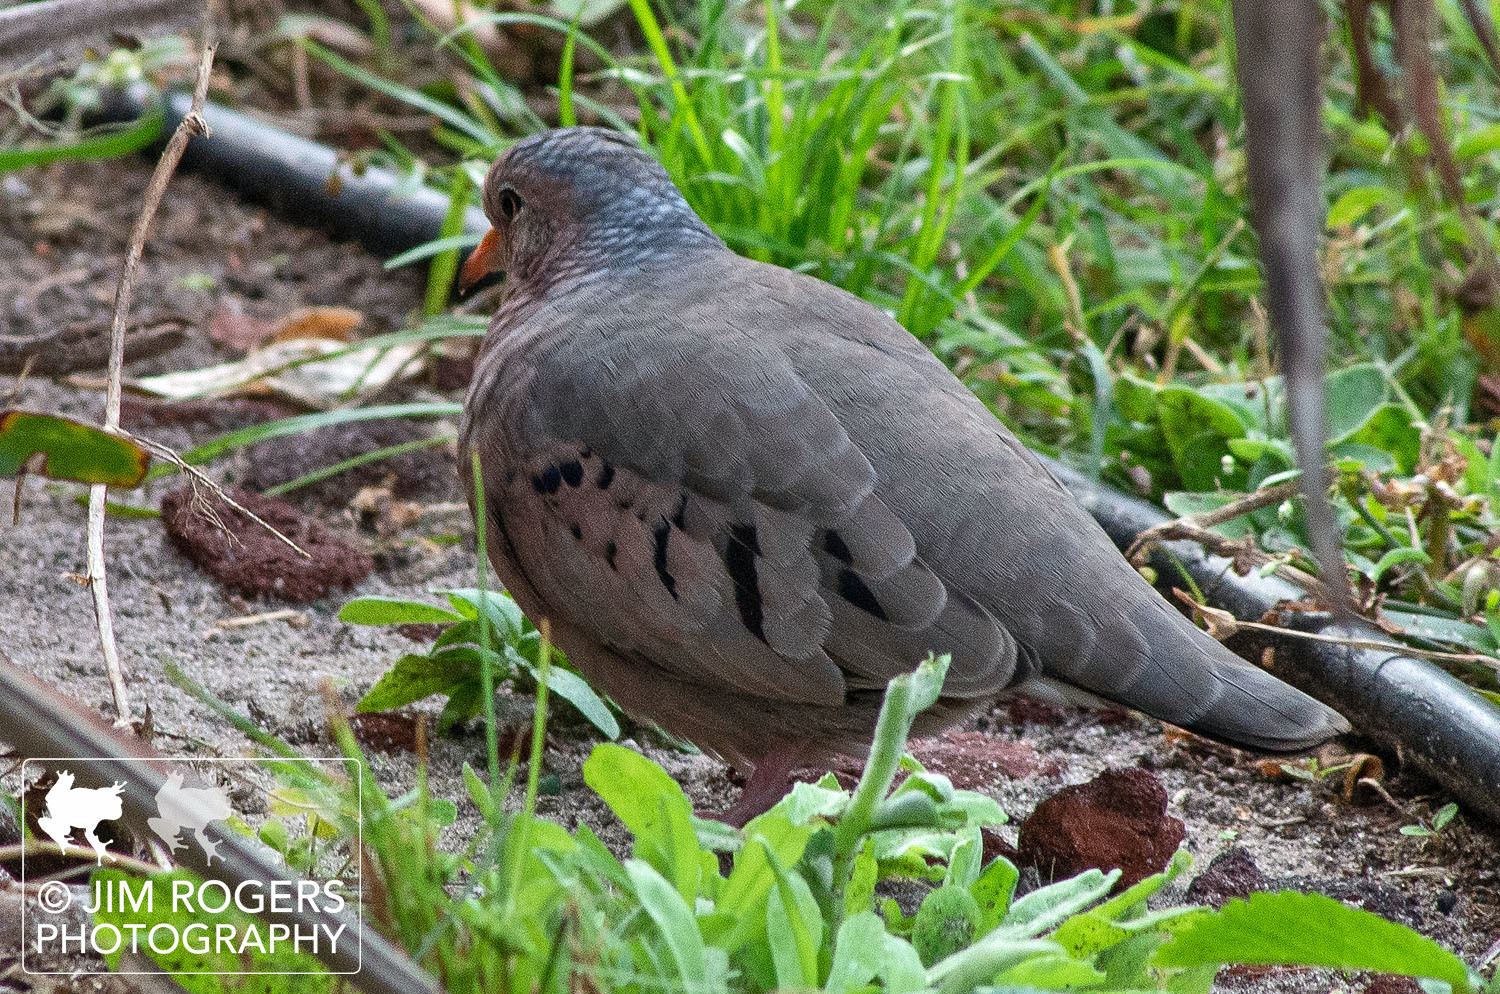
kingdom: Animalia
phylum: Chordata
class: Aves
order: Columbiformes
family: Columbidae
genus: Columbina
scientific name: Columbina passerina
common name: Common ground-dove
